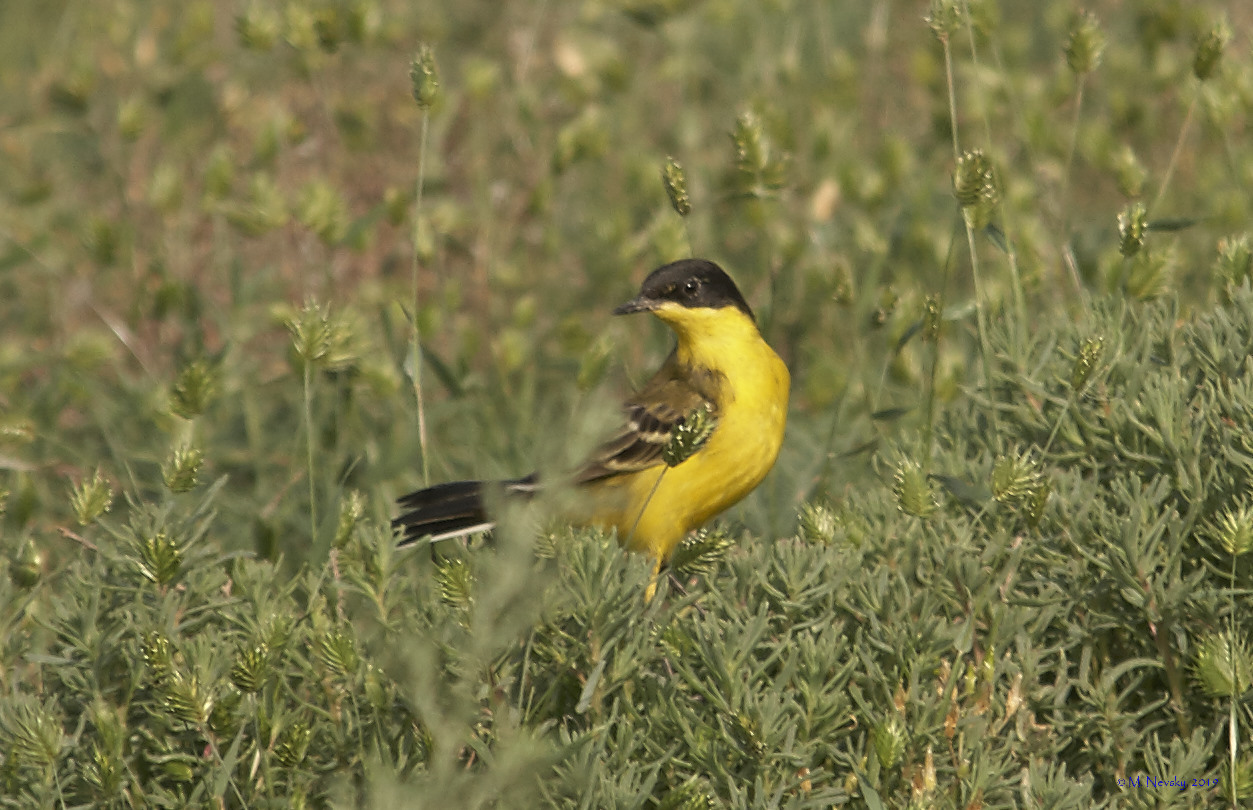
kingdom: Animalia
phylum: Chordata
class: Aves
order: Passeriformes
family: Motacillidae
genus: Motacilla
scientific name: Motacilla flava
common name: Western yellow wagtail
